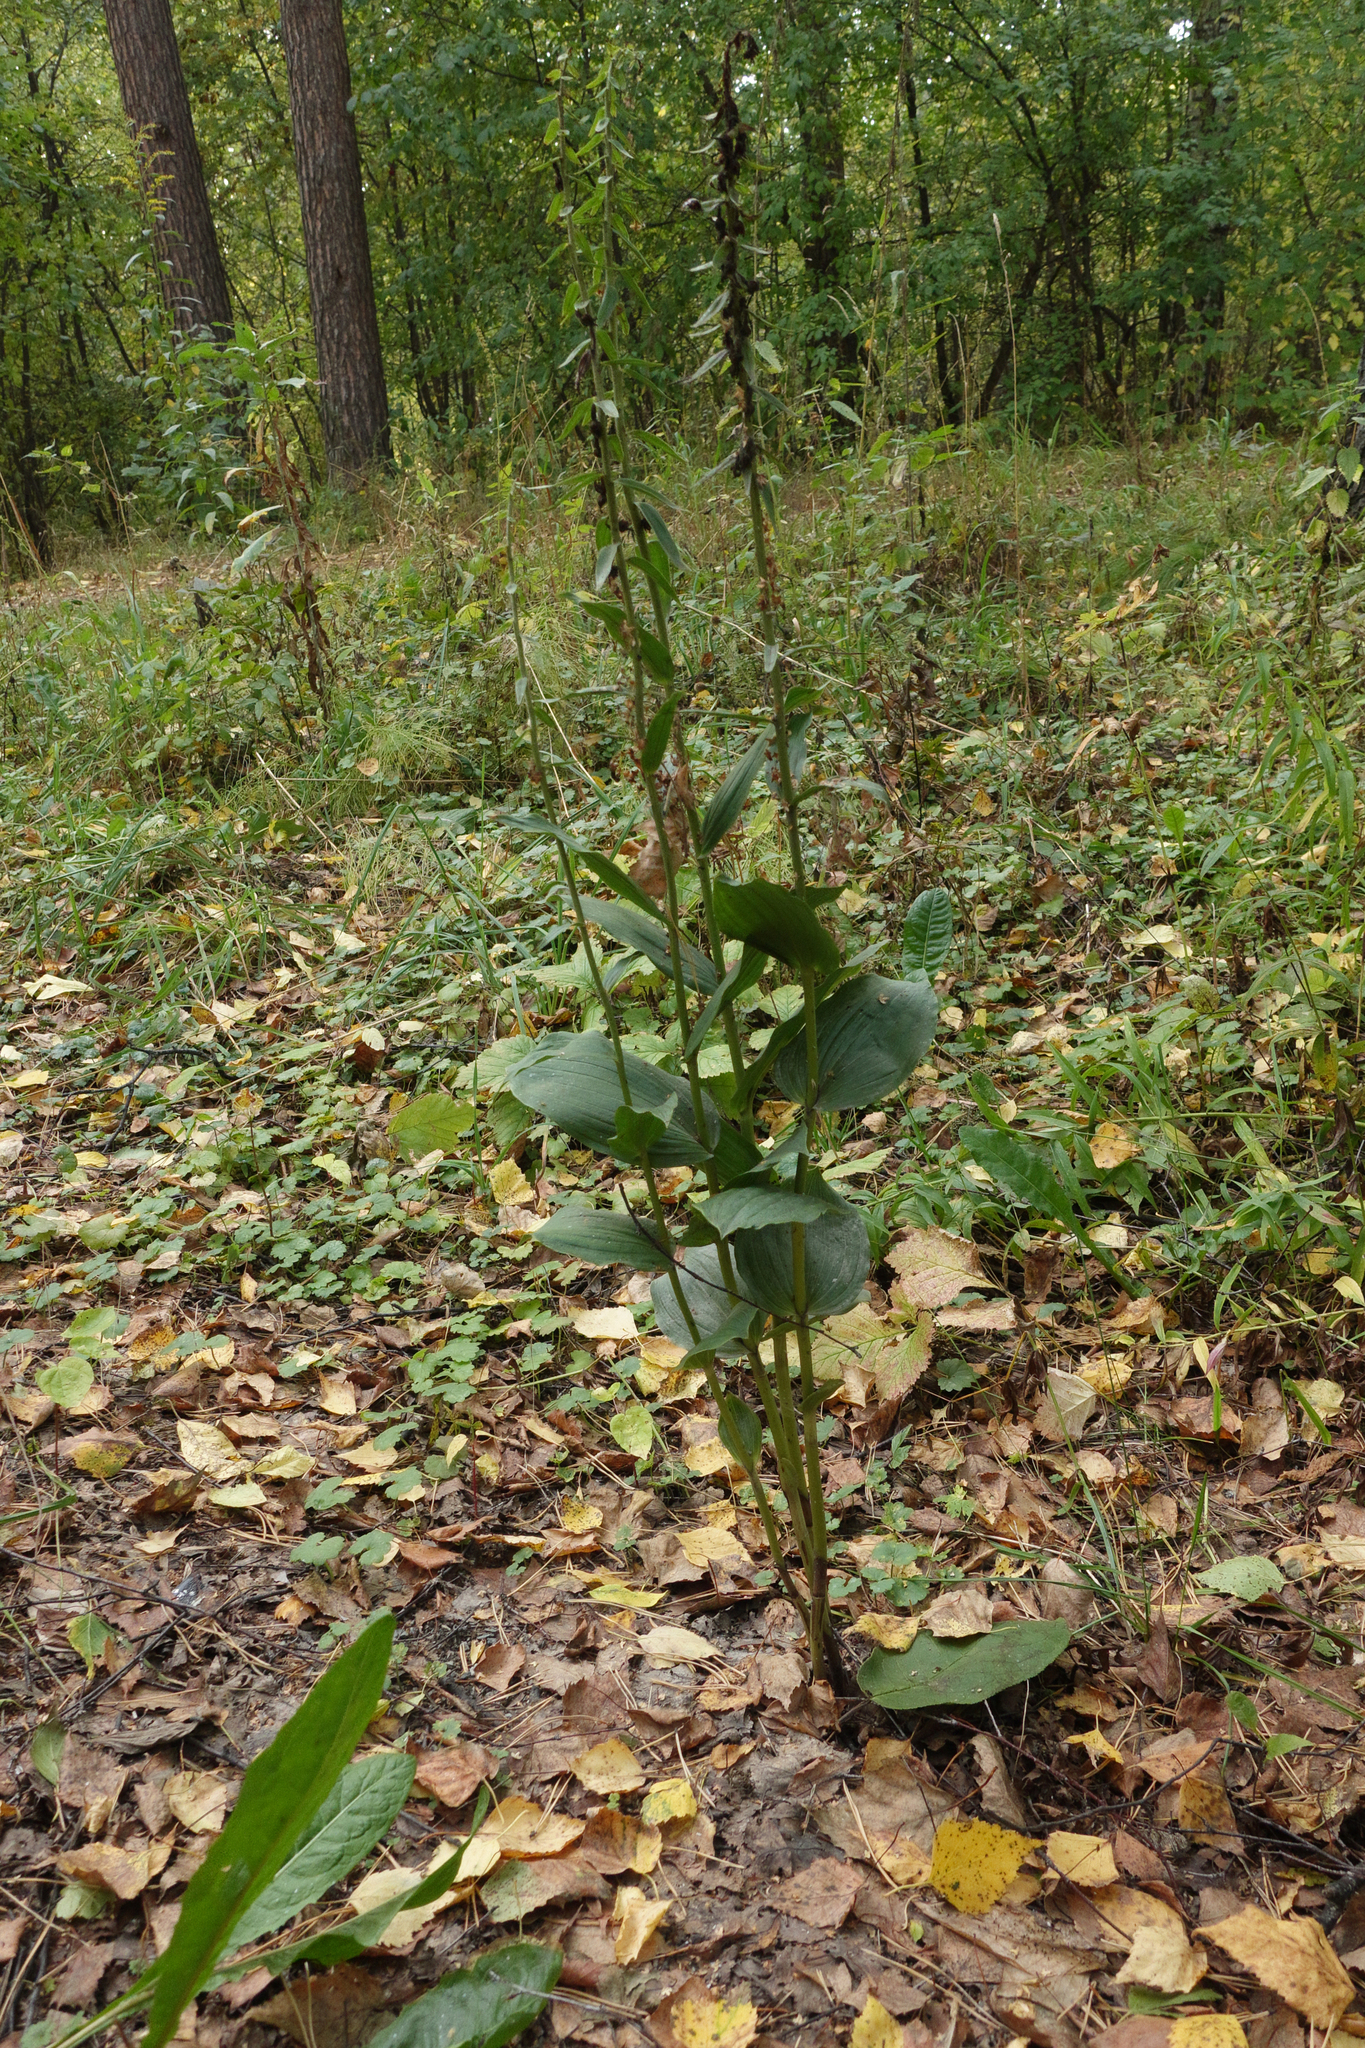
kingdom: Plantae
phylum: Tracheophyta
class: Liliopsida
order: Asparagales
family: Orchidaceae
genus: Epipactis
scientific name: Epipactis helleborine
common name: Broad-leaved helleborine
